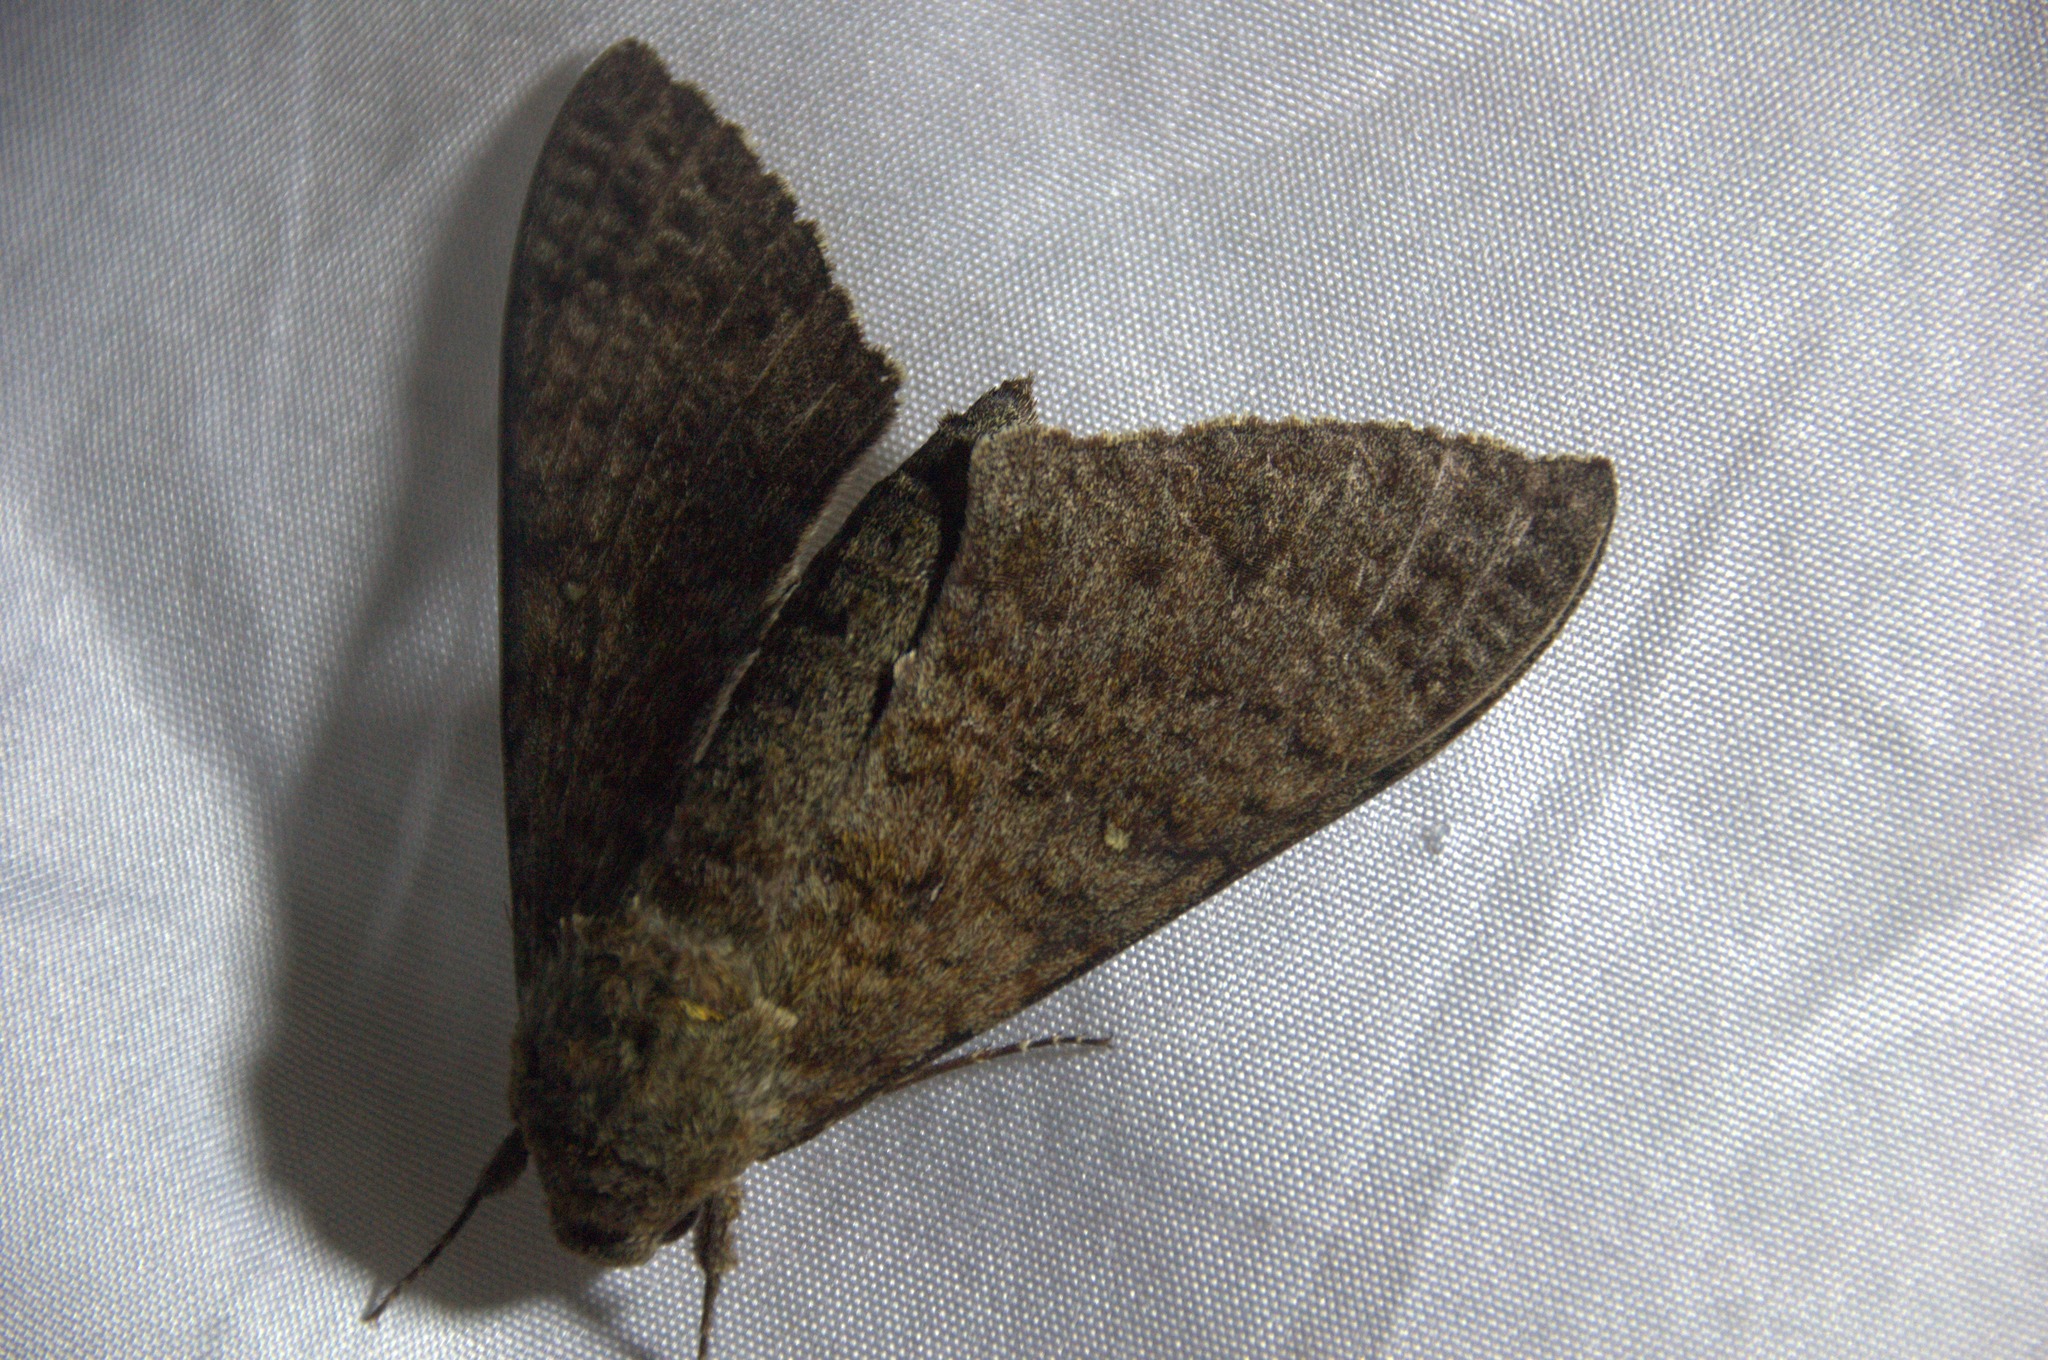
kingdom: Animalia
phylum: Arthropoda
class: Insecta
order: Lepidoptera
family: Sphingidae
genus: Manduca
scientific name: Manduca muscosa
